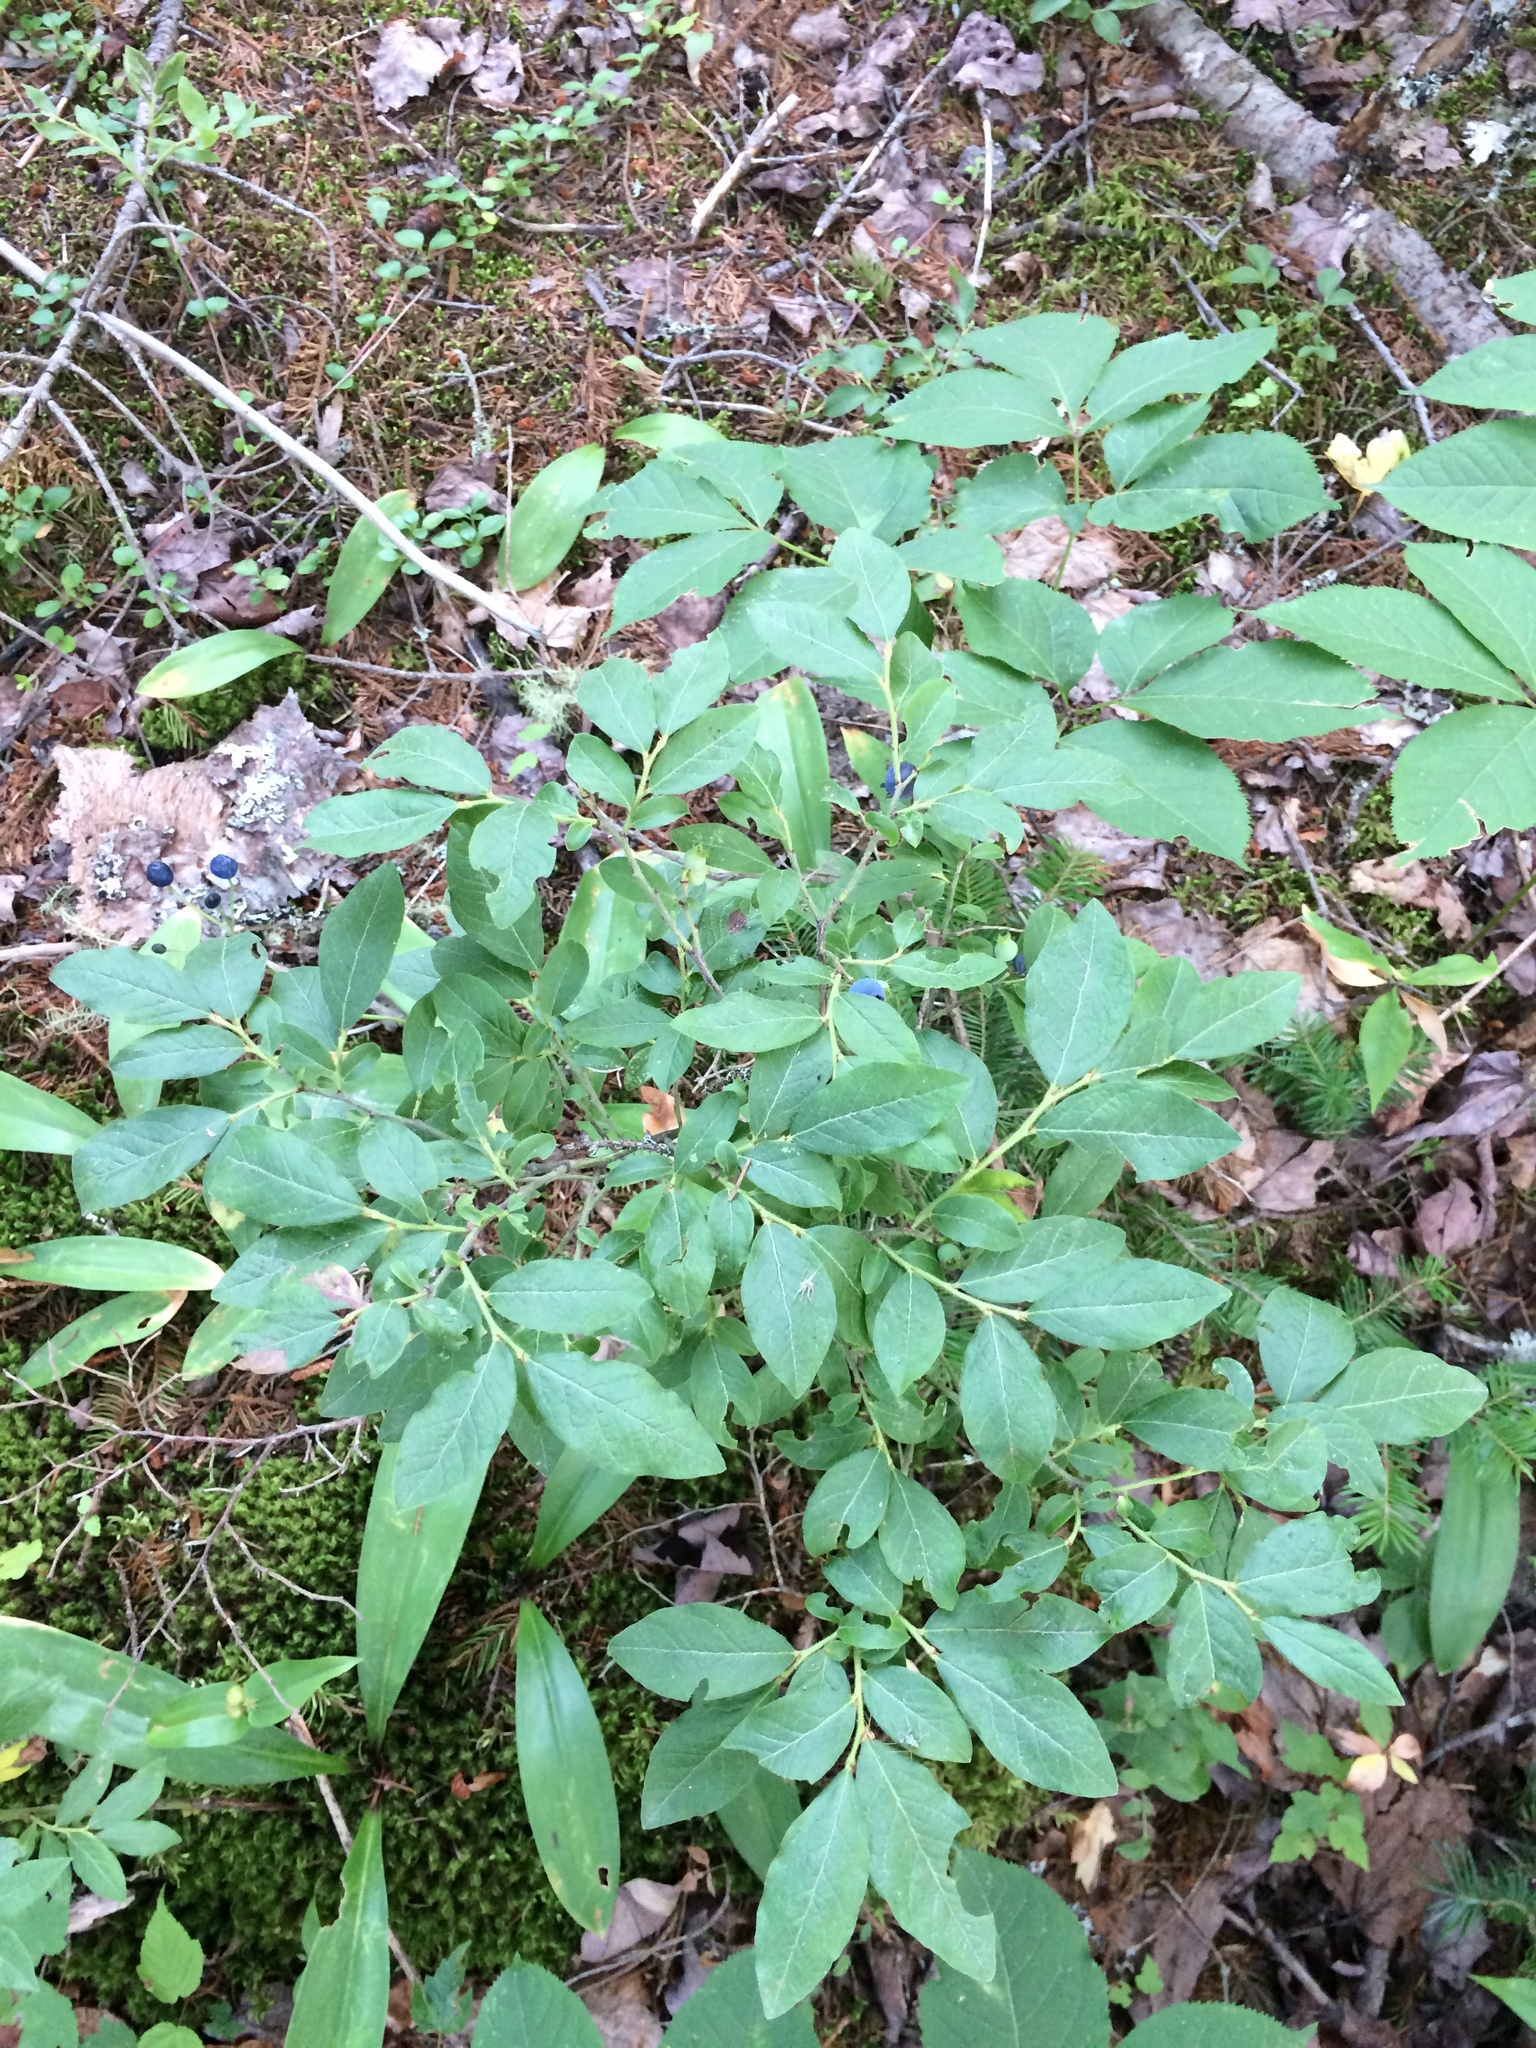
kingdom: Plantae
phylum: Tracheophyta
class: Magnoliopsida
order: Ericales
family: Ericaceae
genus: Vaccinium
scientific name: Vaccinium myrtilloides
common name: Canada blueberry
